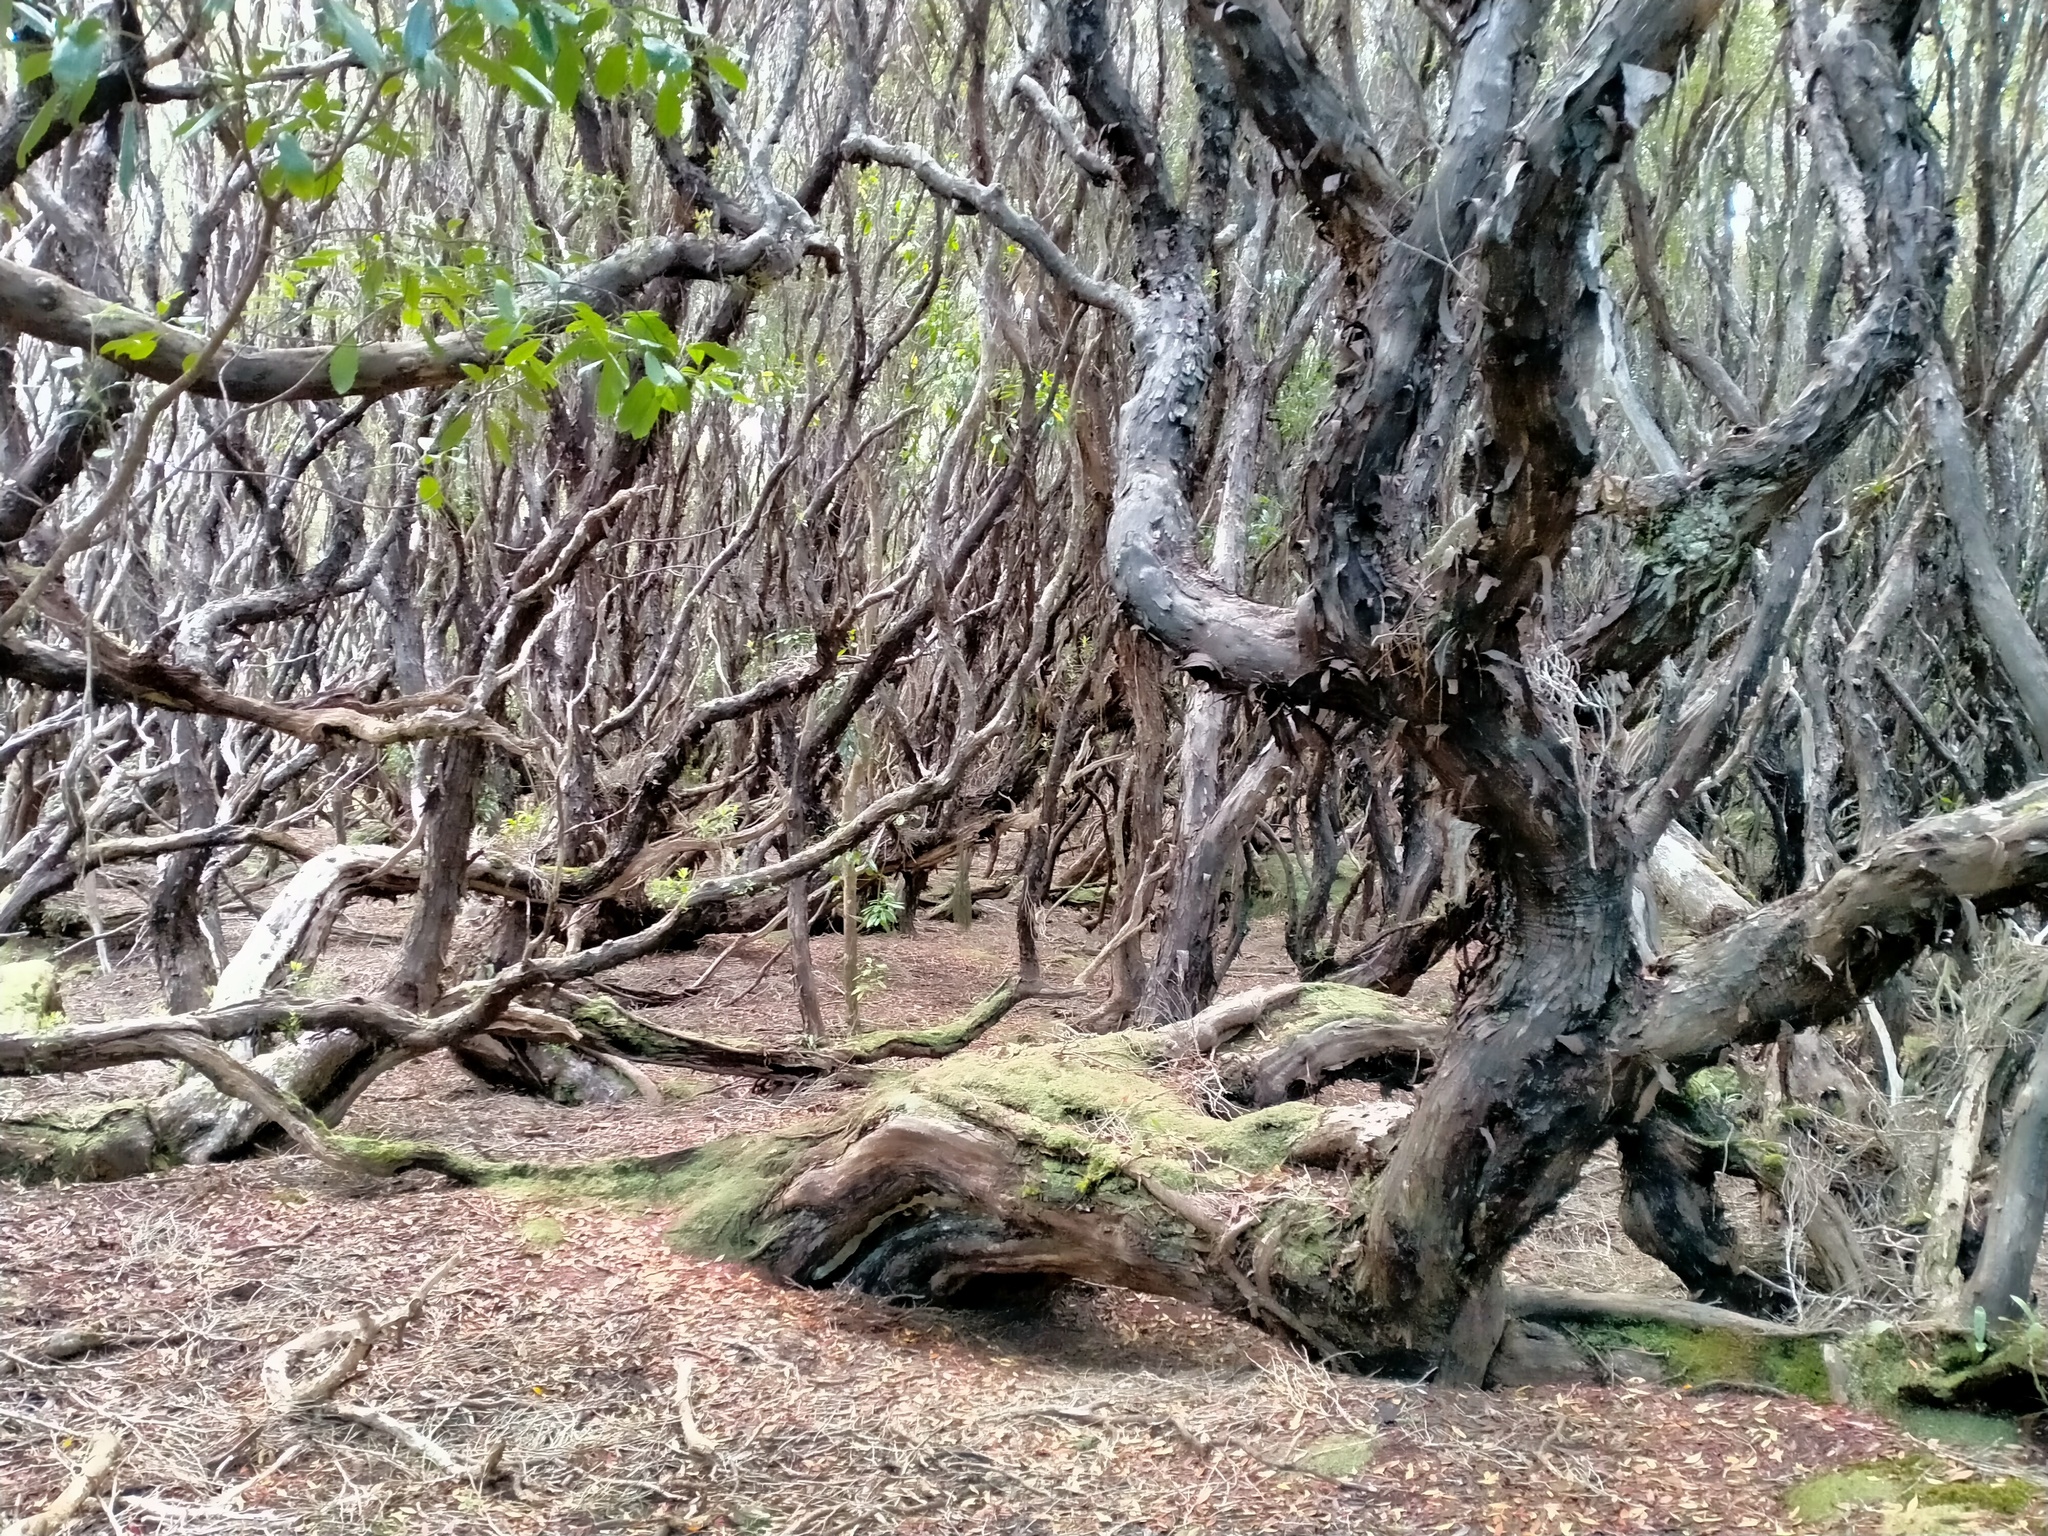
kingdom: Plantae
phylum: Tracheophyta
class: Magnoliopsida
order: Myrtales
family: Myrtaceae
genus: Metrosideros
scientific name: Metrosideros umbellata
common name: Southern rata
